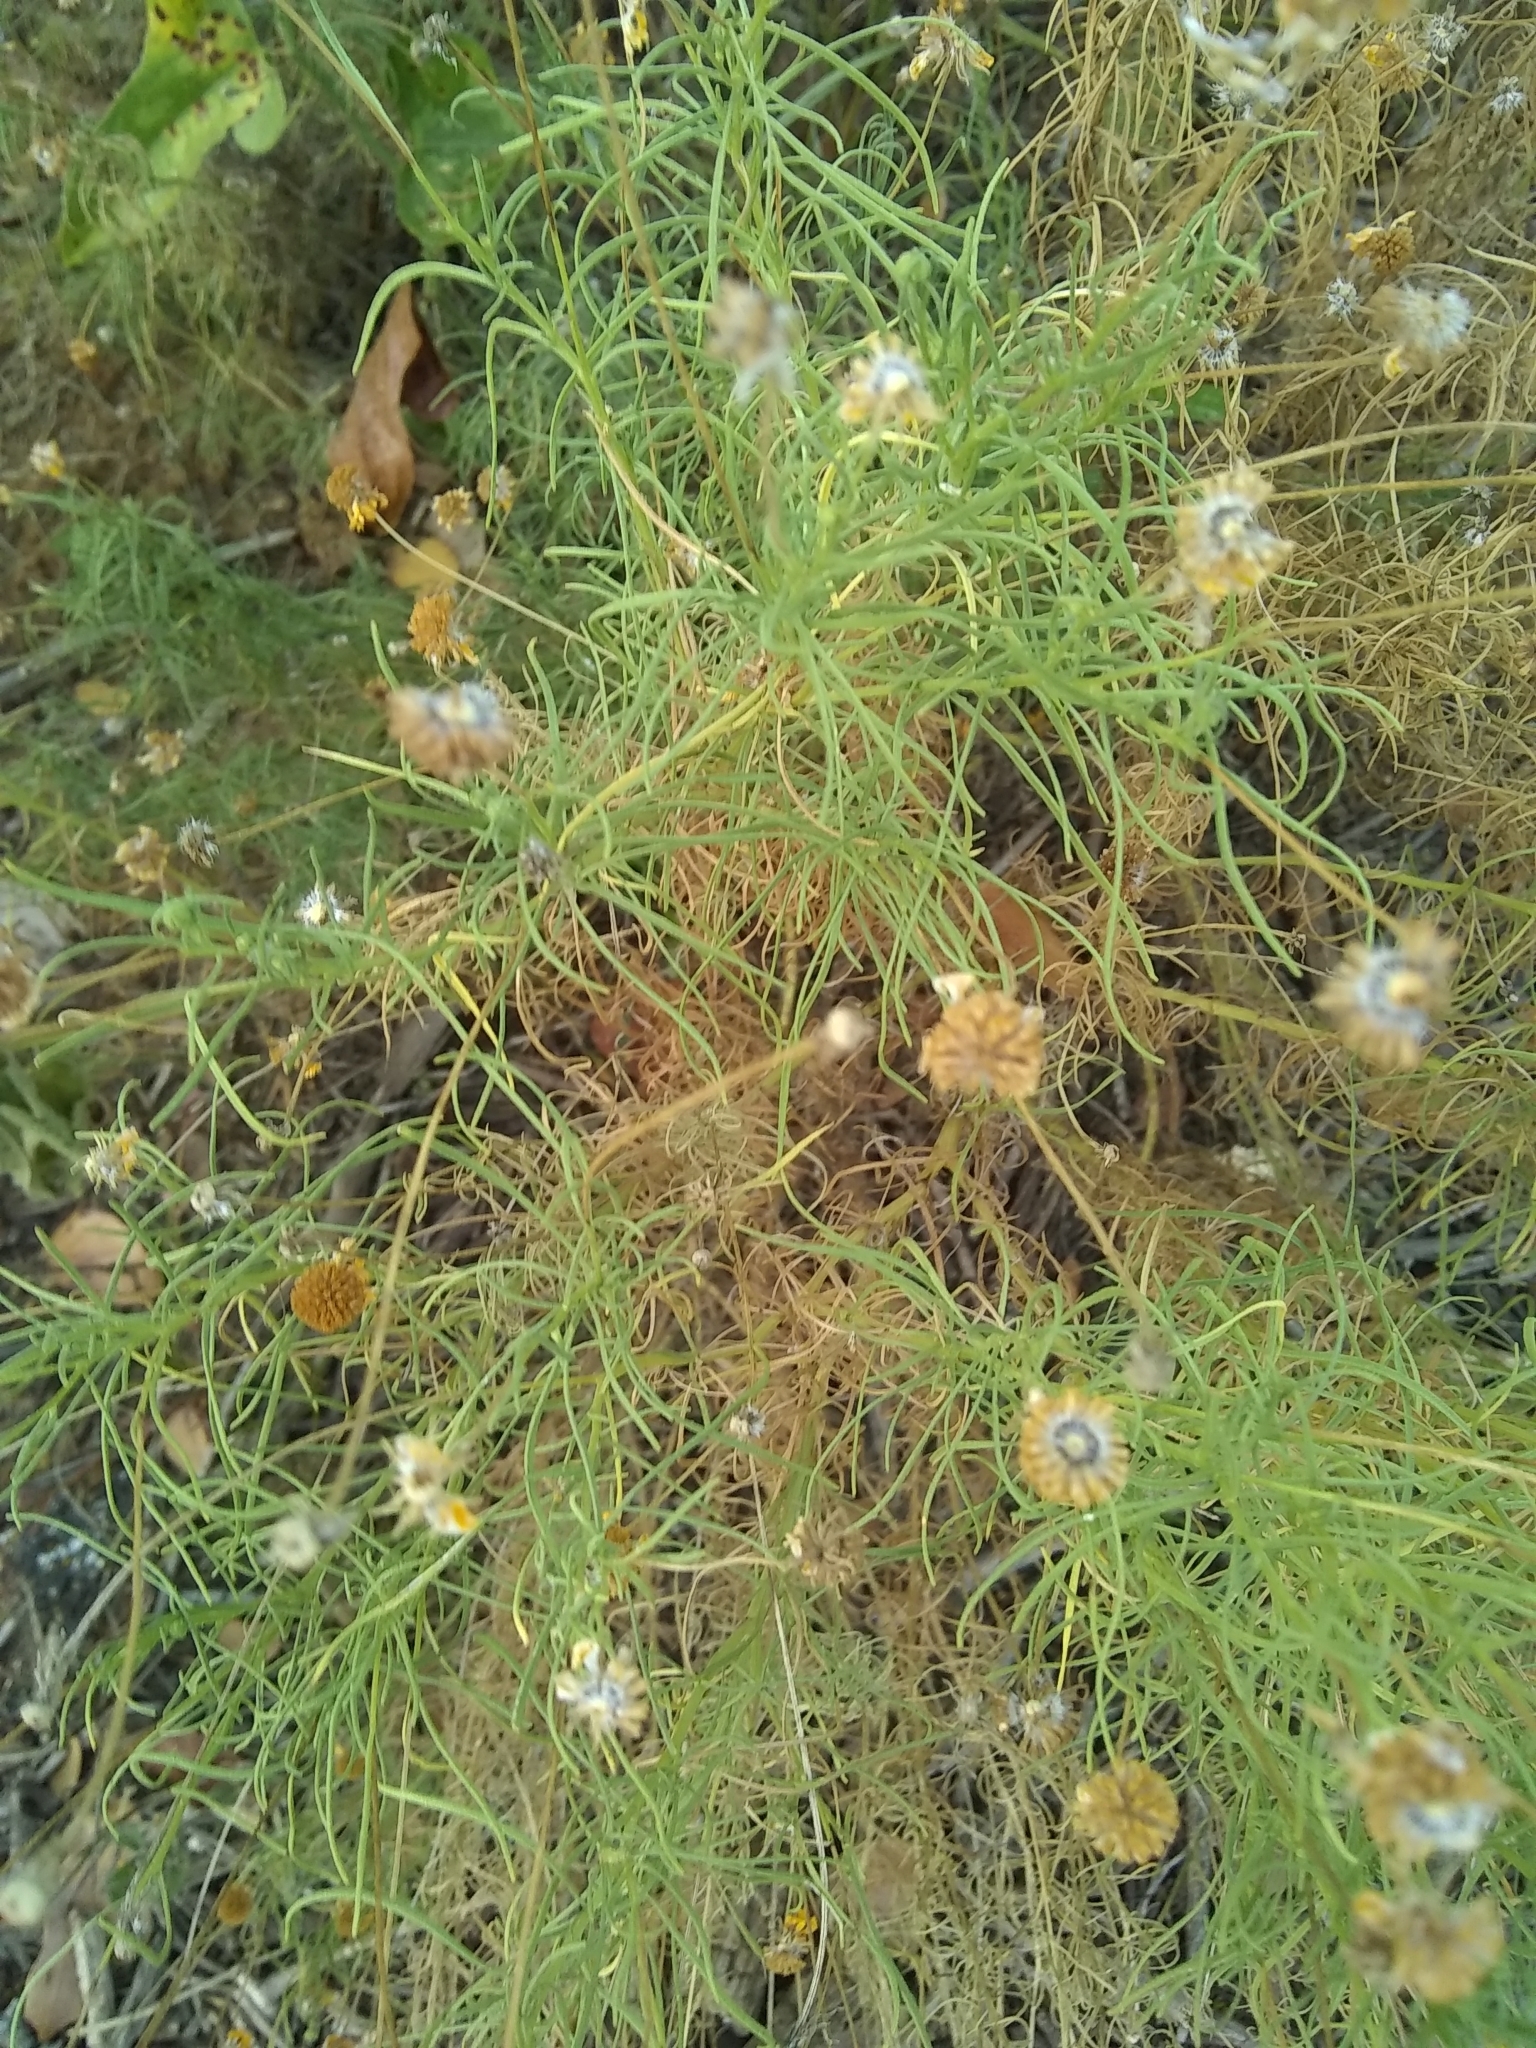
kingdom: Plantae
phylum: Tracheophyta
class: Magnoliopsida
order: Asterales
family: Asteraceae
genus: Helenium
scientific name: Helenium amarum
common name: Bitter sneezeweed
